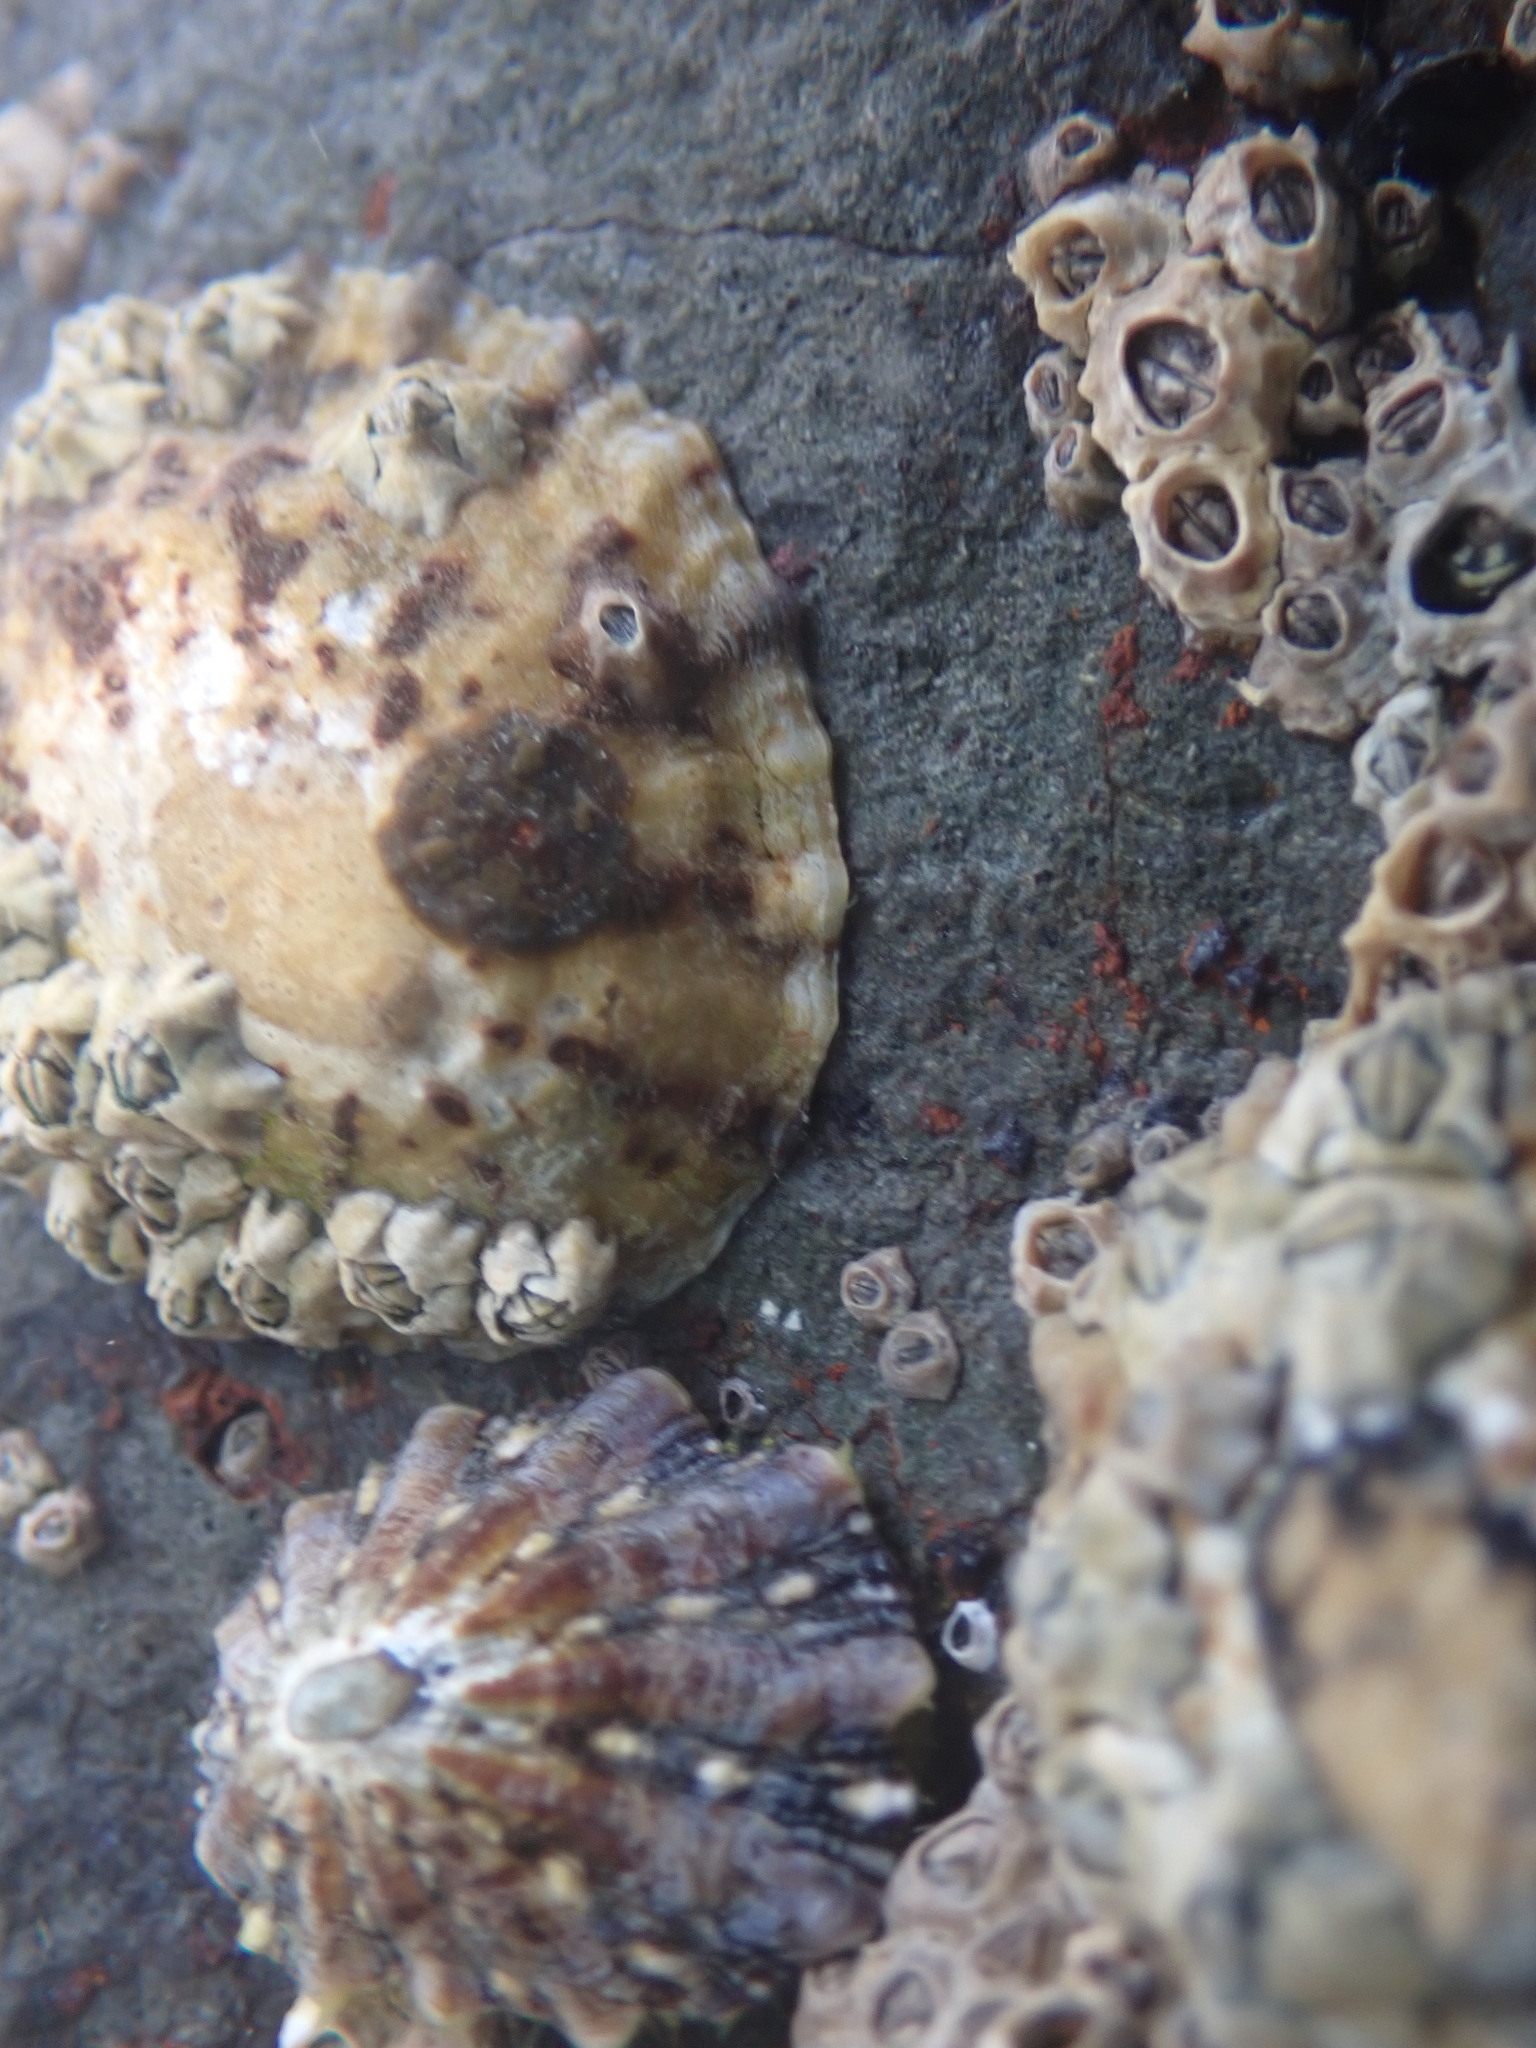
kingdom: Animalia
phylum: Mollusca
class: Gastropoda
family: Nacellidae
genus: Cellana
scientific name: Cellana ornata
